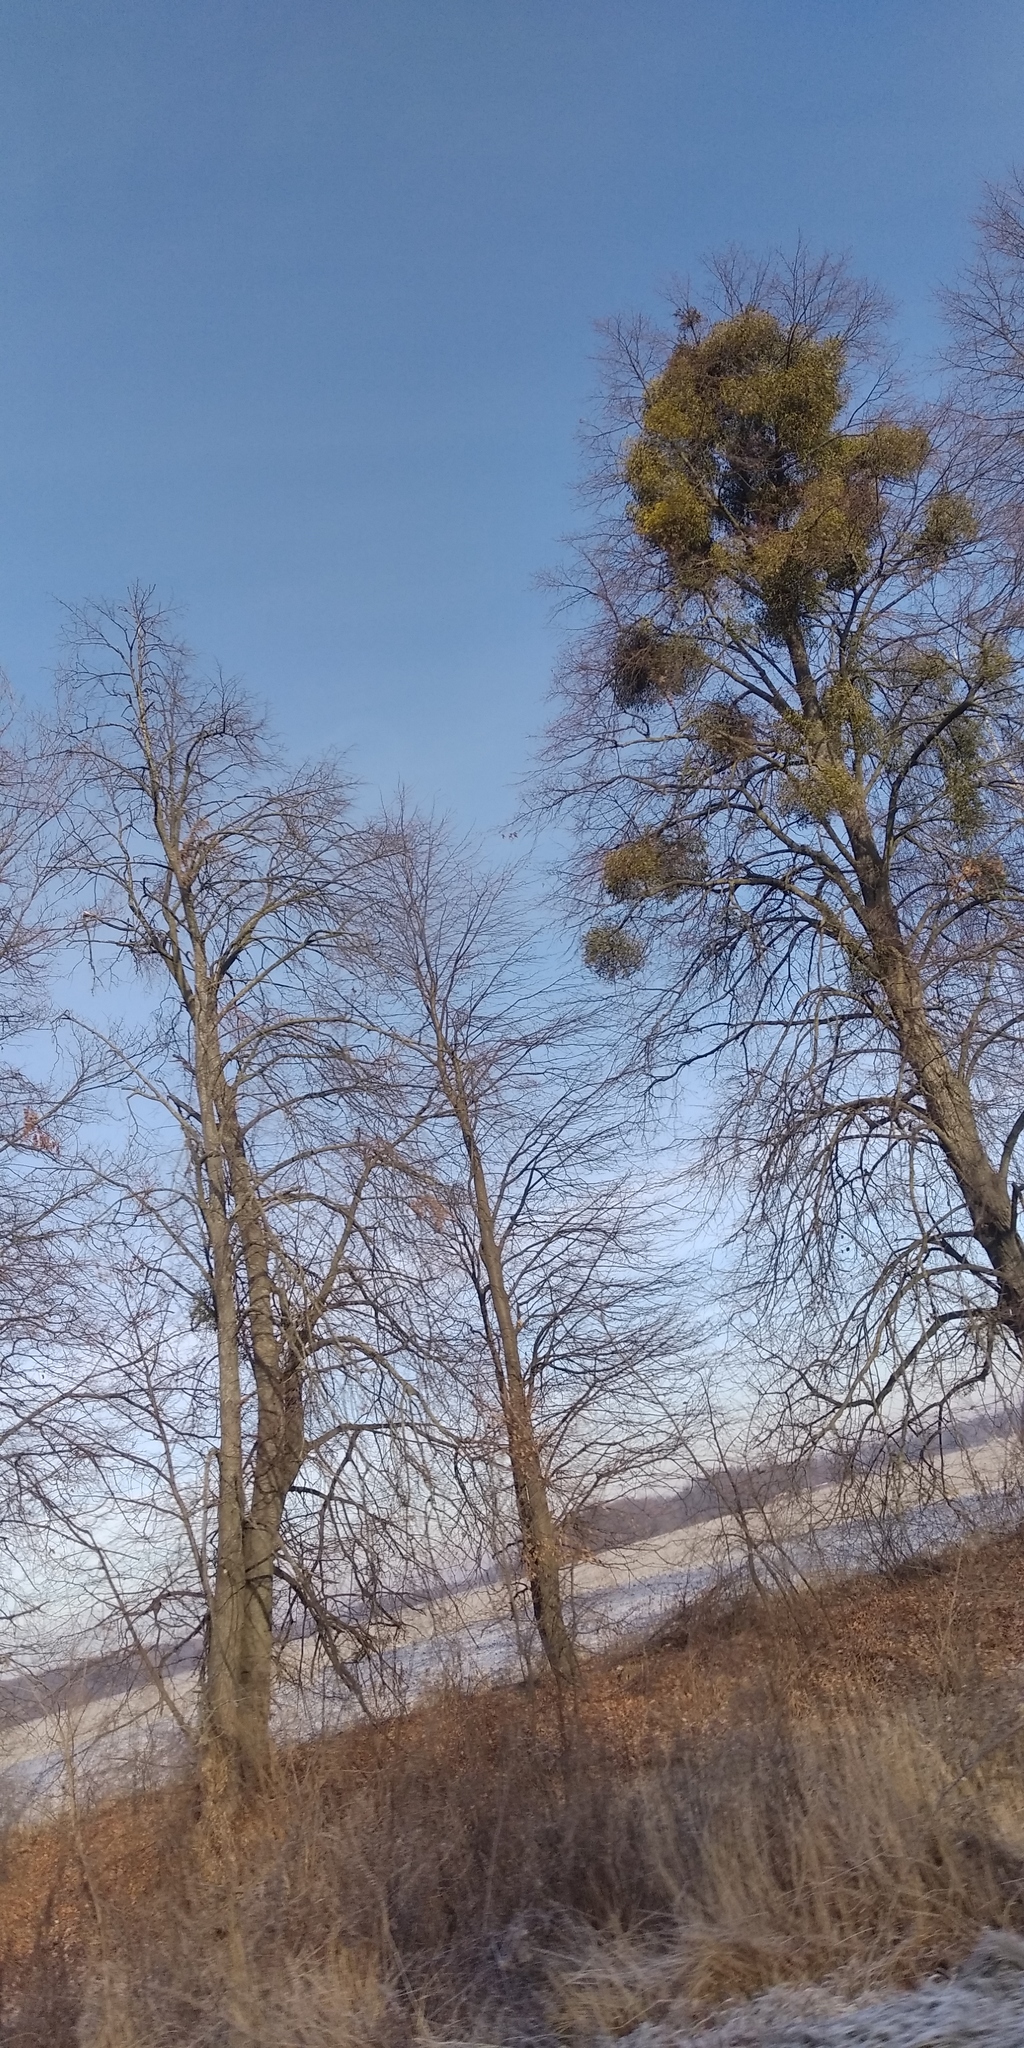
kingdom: Plantae
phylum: Tracheophyta
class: Magnoliopsida
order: Santalales
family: Viscaceae
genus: Viscum
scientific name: Viscum album
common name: Mistletoe
